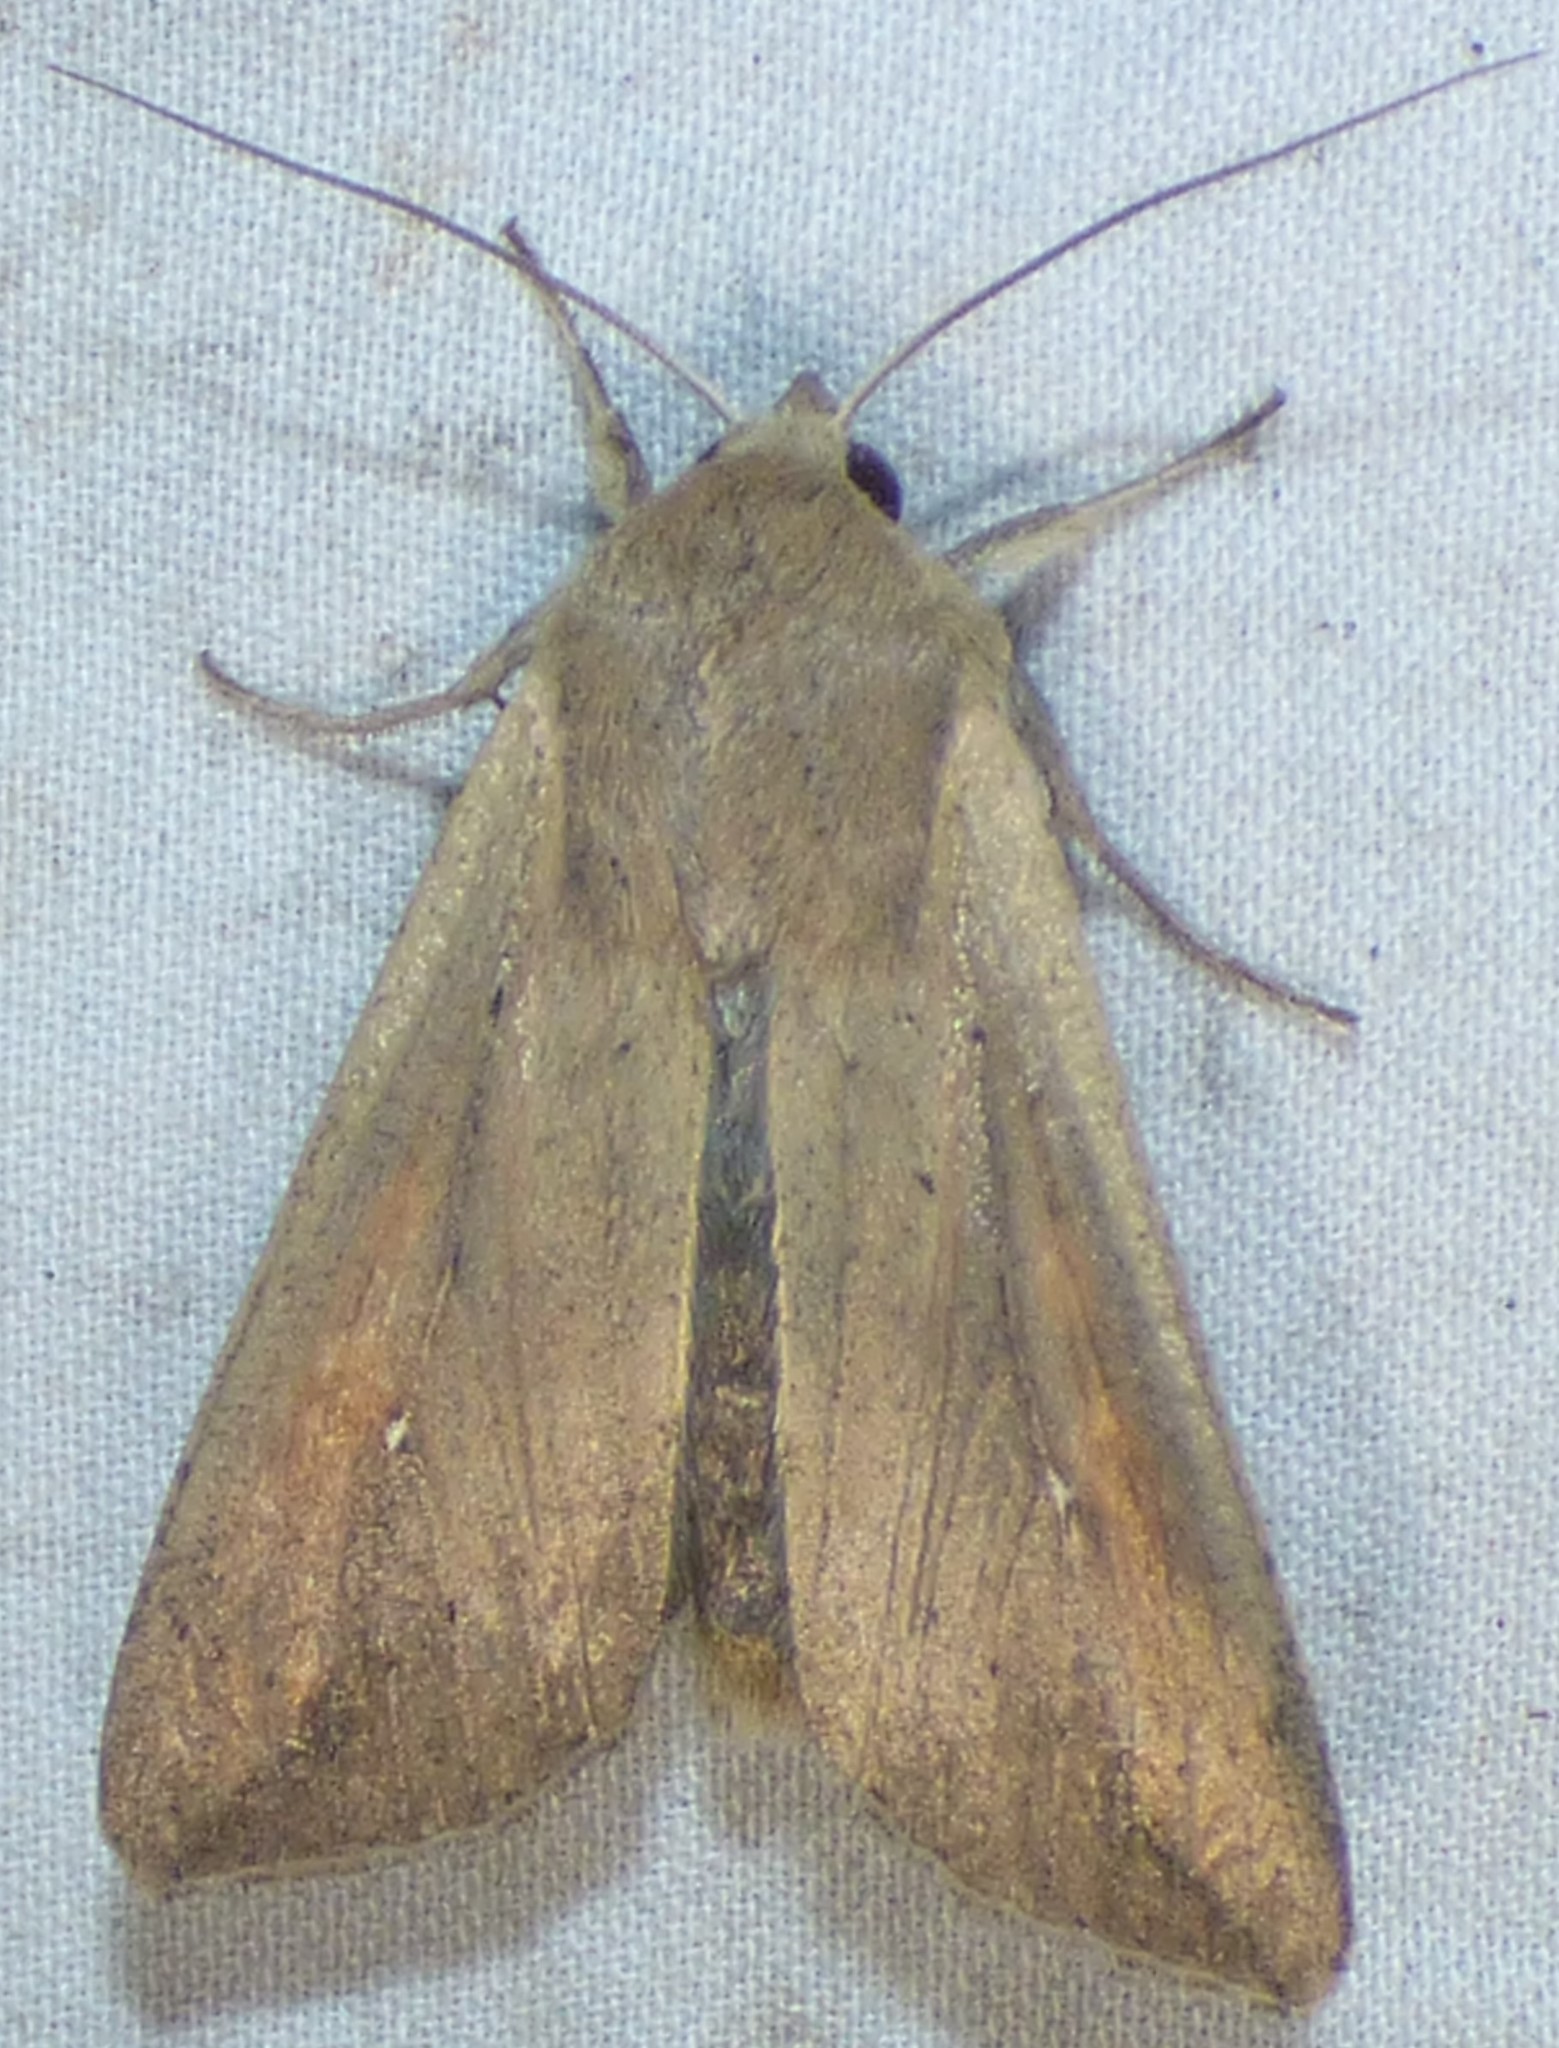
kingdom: Animalia
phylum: Arthropoda
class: Insecta
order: Lepidoptera
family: Noctuidae
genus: Mythimna
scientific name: Mythimna unipuncta
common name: White-speck
